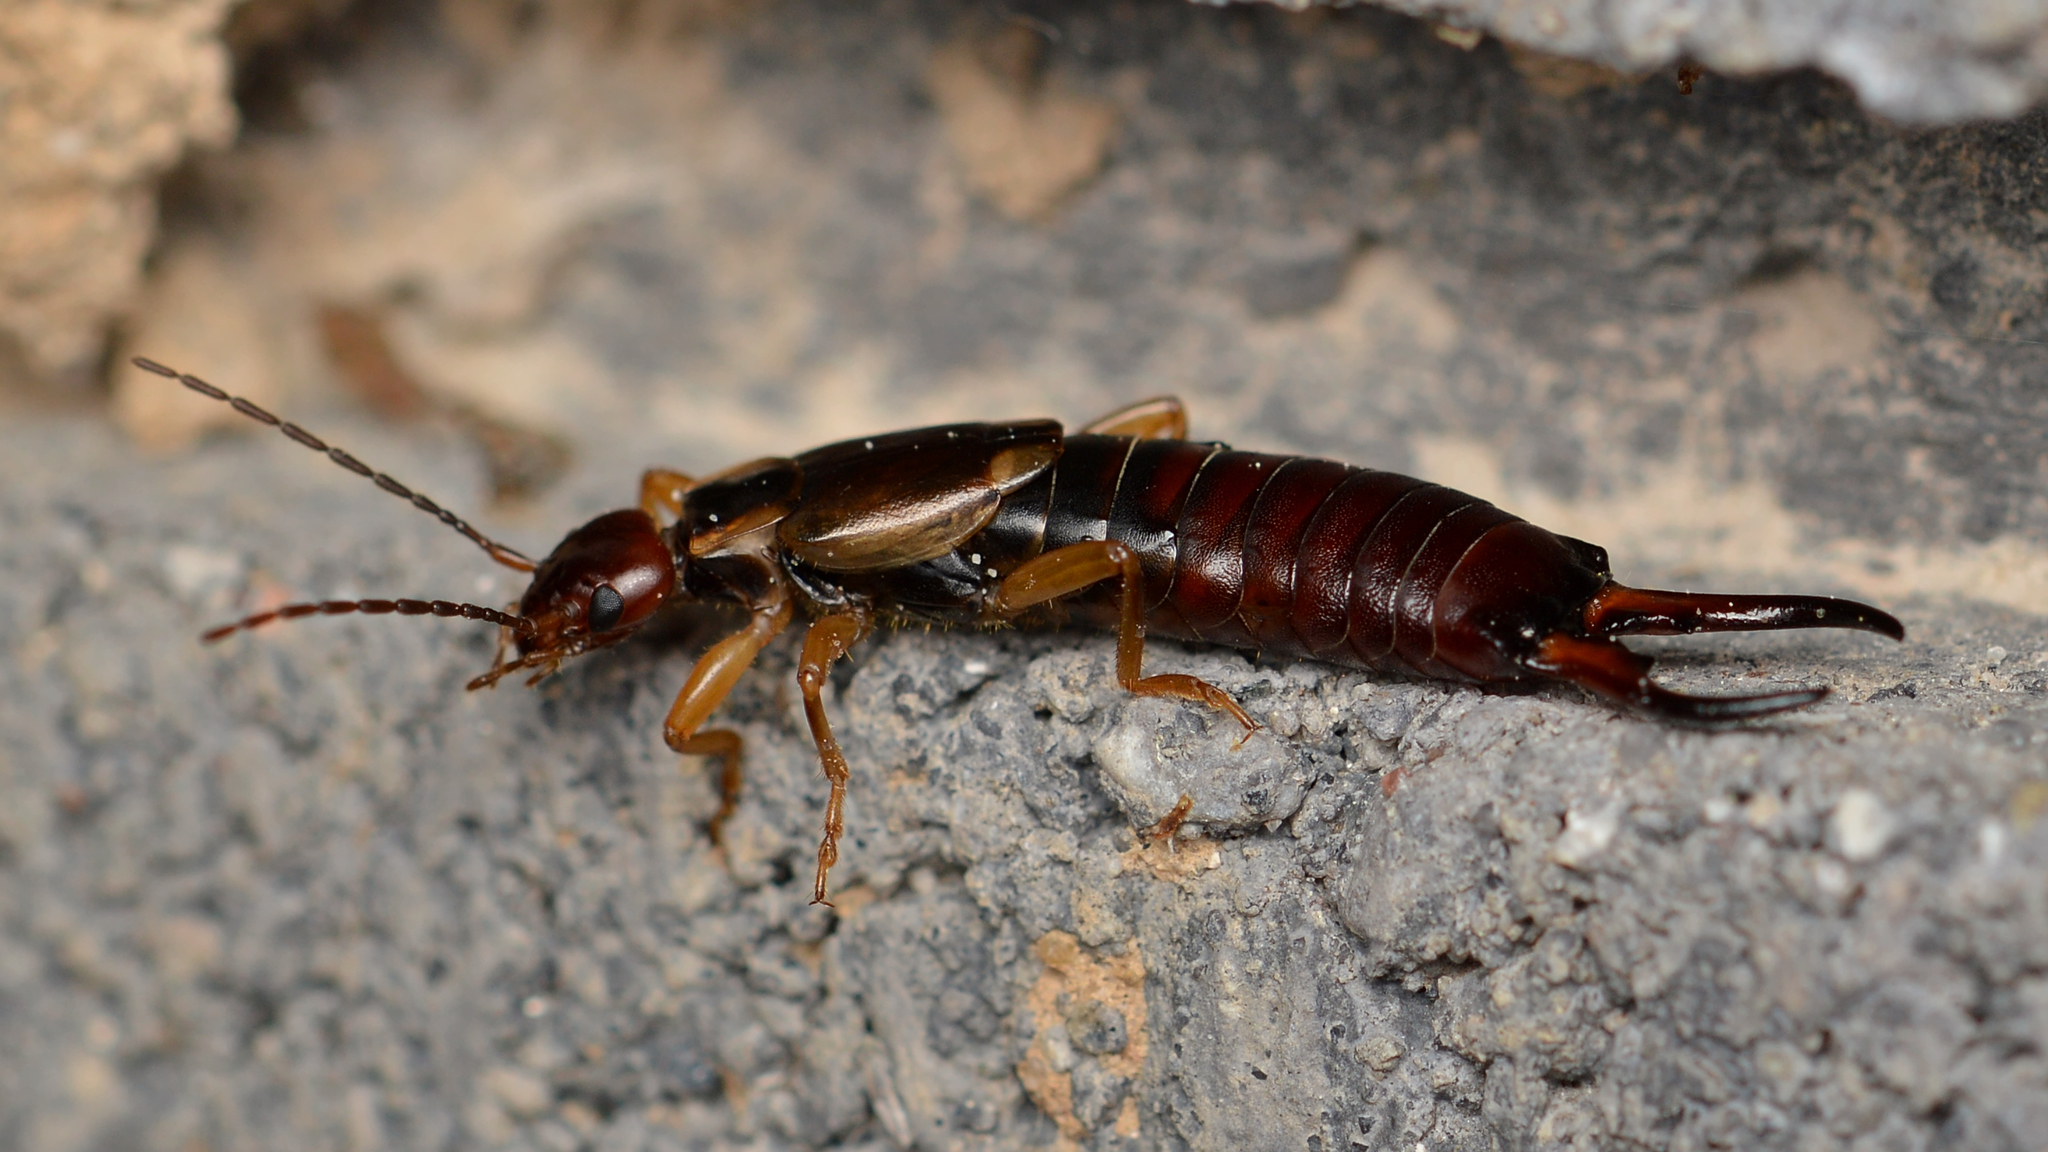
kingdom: Animalia
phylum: Arthropoda
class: Insecta
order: Dermaptera
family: Forficulidae
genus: Forficula
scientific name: Forficula
